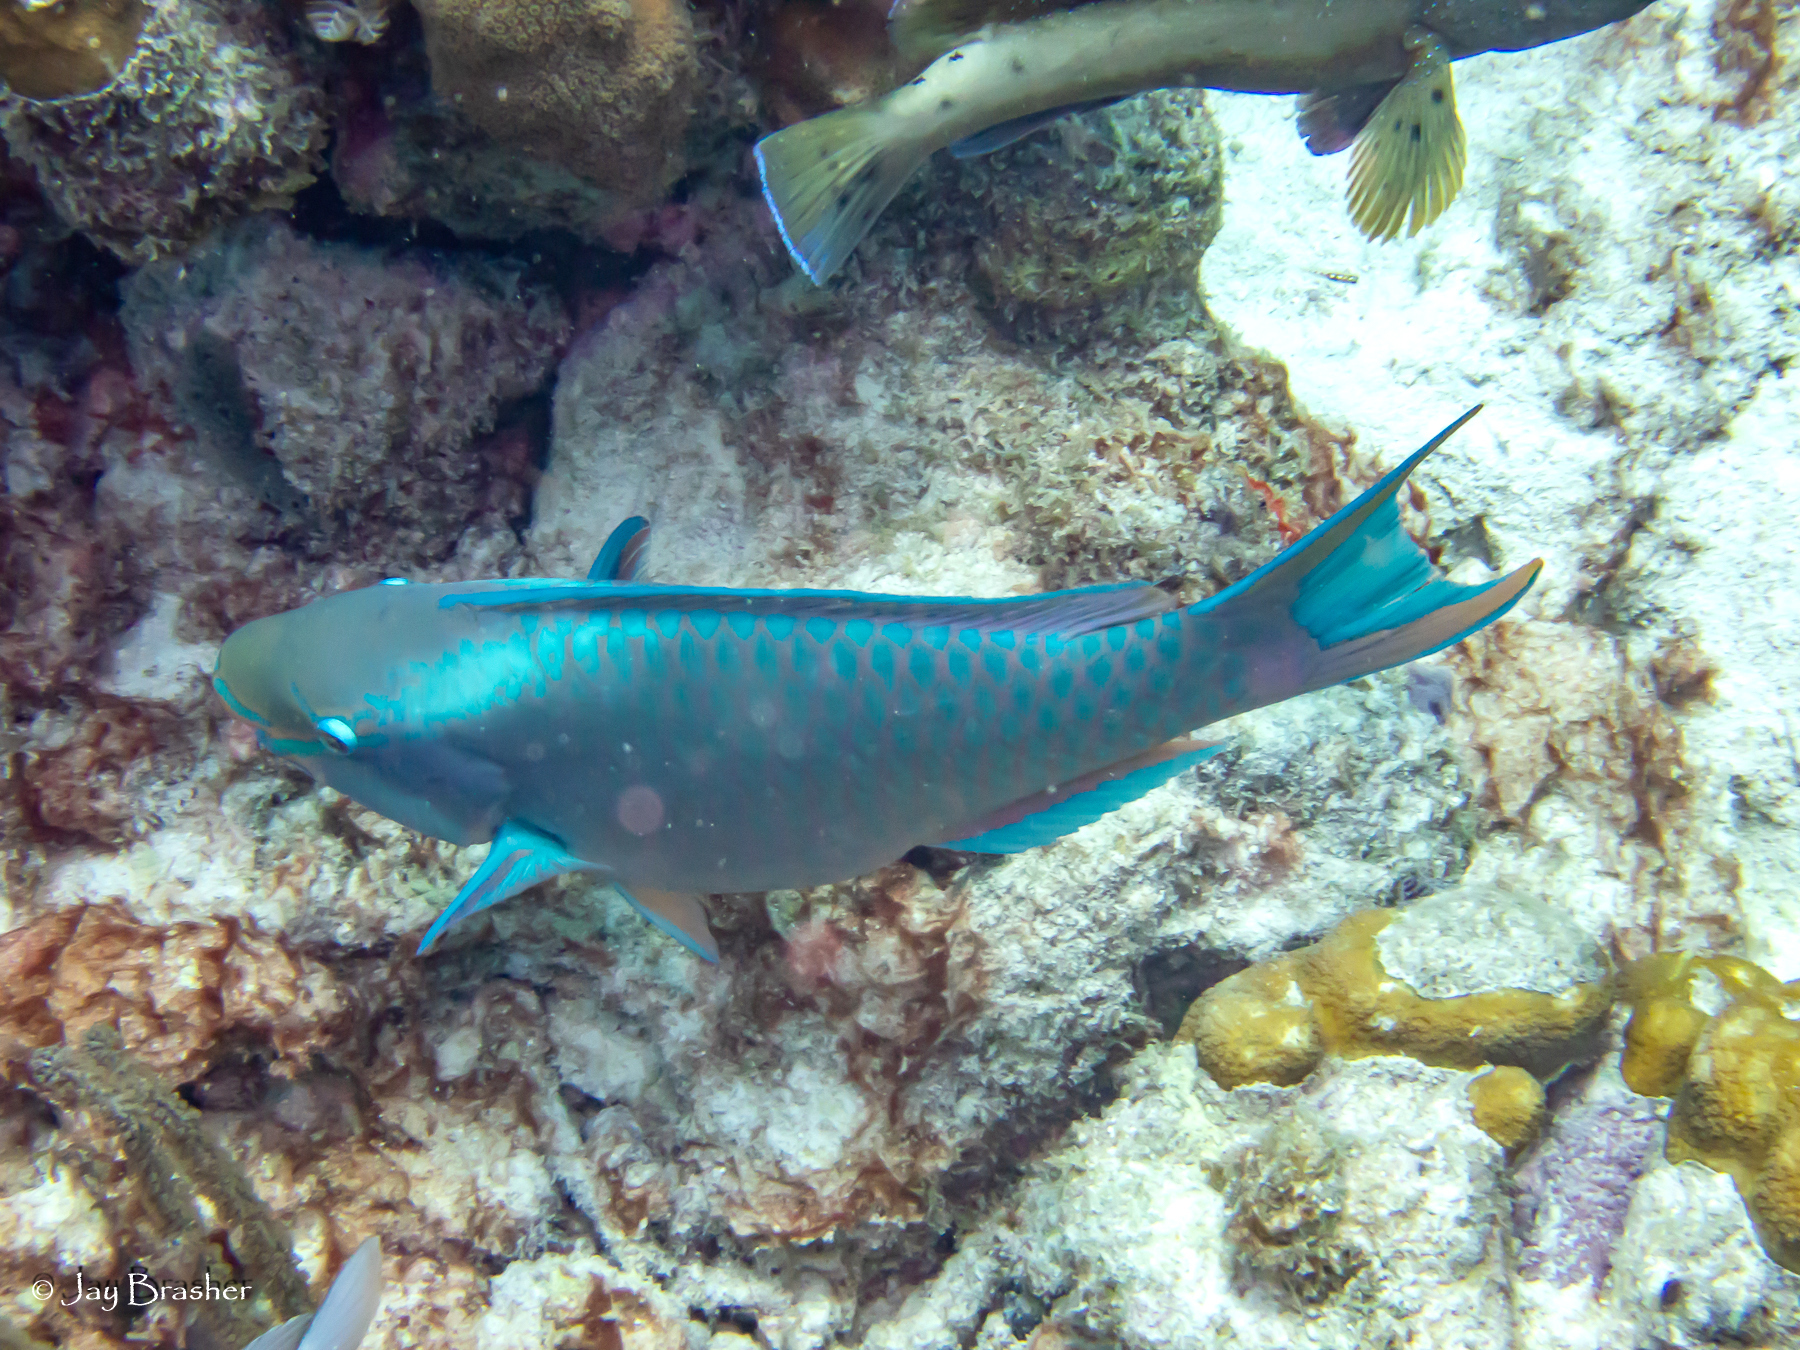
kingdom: Animalia
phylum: Chordata
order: Perciformes
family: Scaridae
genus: Scarus
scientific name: Scarus vetula
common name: Queen parrotfish
